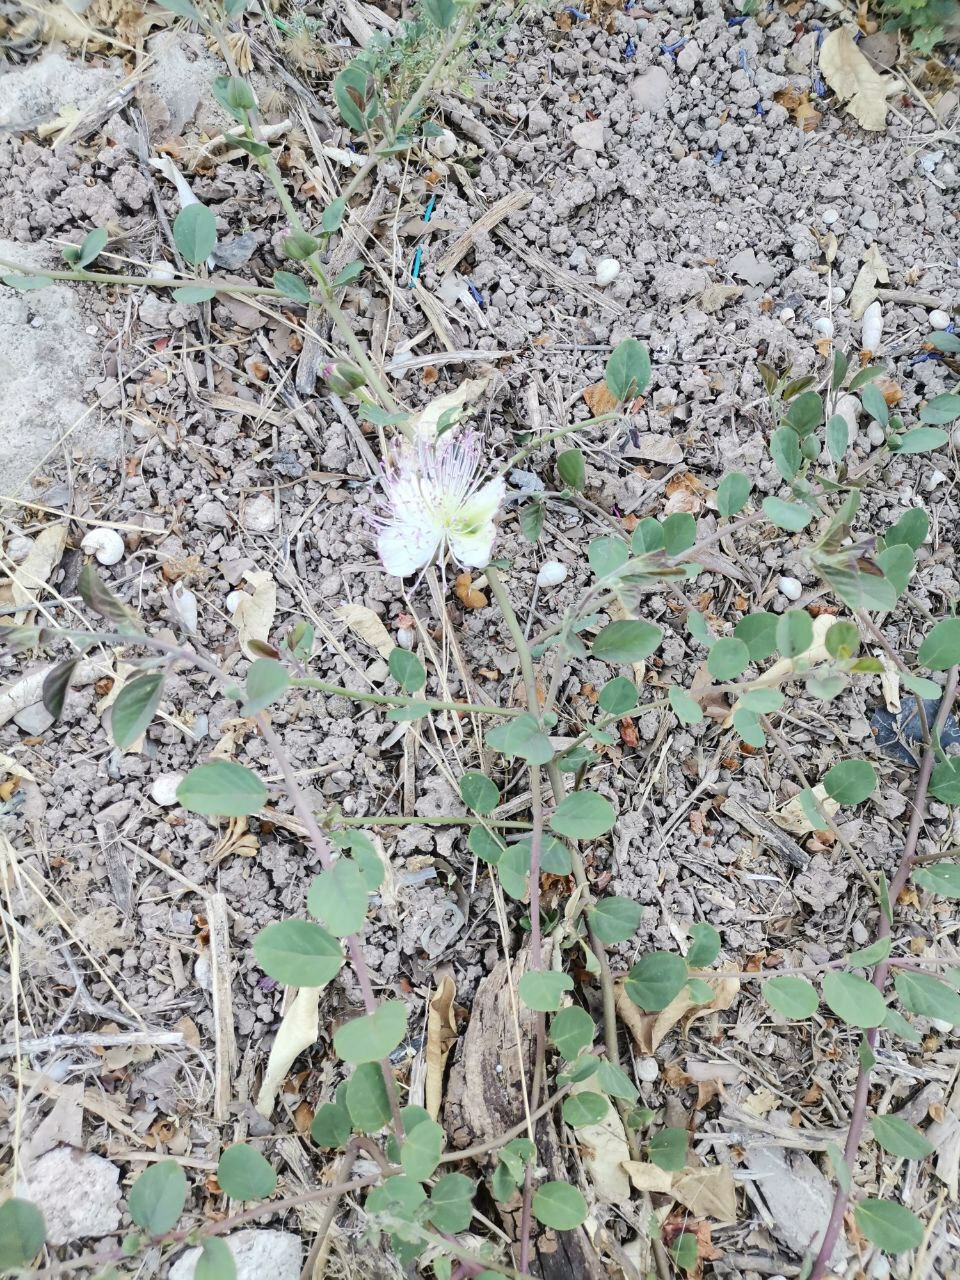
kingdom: Plantae
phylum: Tracheophyta
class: Magnoliopsida
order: Brassicales
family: Capparaceae
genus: Capparis
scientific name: Capparis spinosa
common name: Caper
